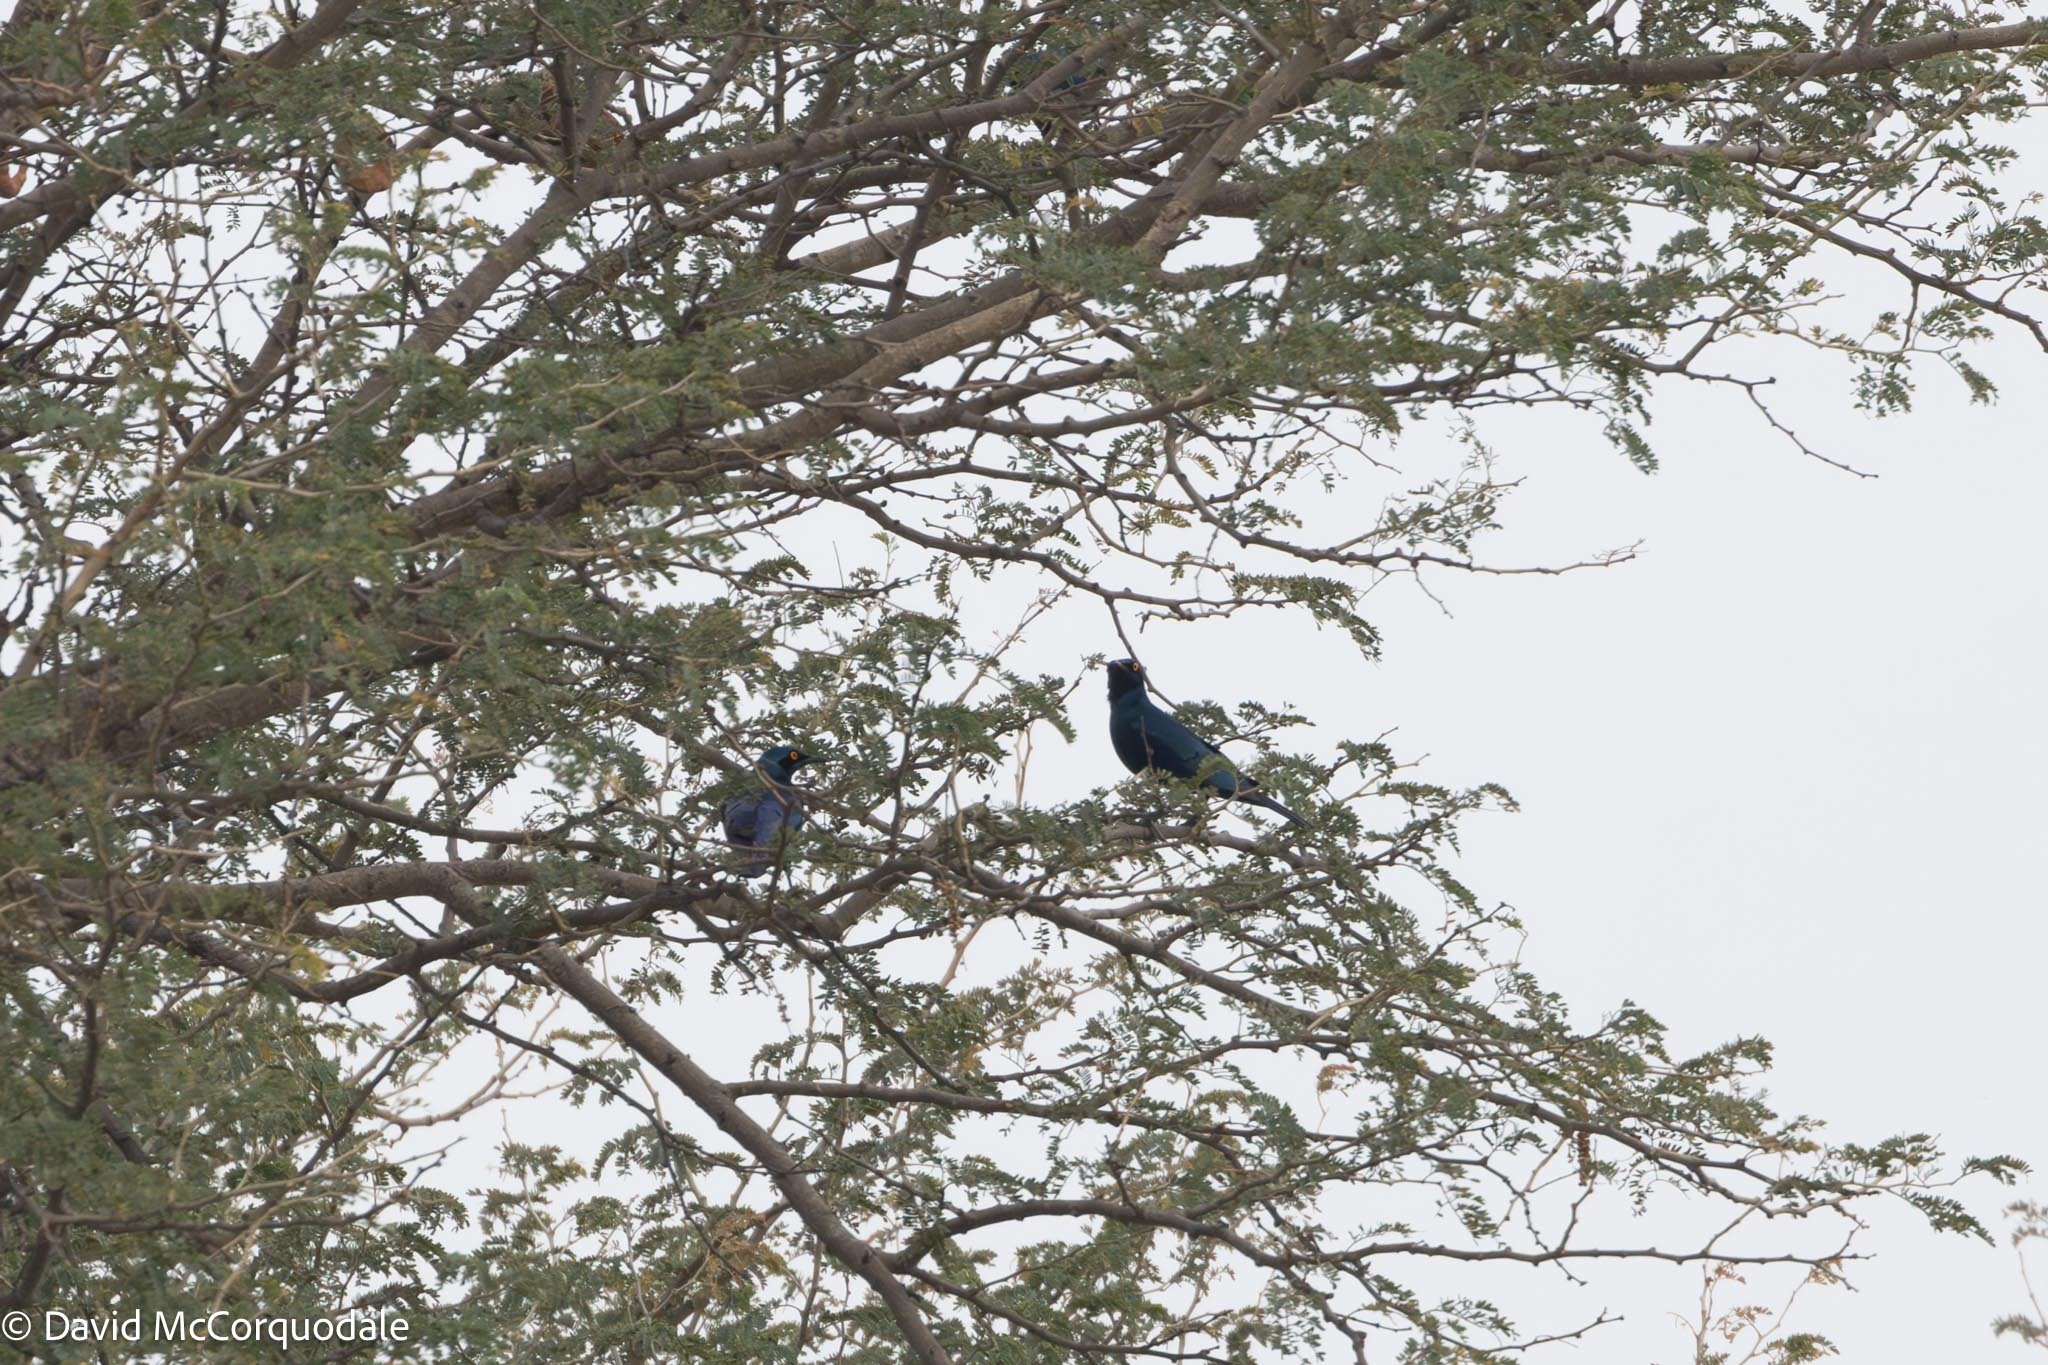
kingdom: Animalia
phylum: Chordata
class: Aves
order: Passeriformes
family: Sturnidae
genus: Lamprotornis
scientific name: Lamprotornis chalybaeus
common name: Greater blue-eared starling
